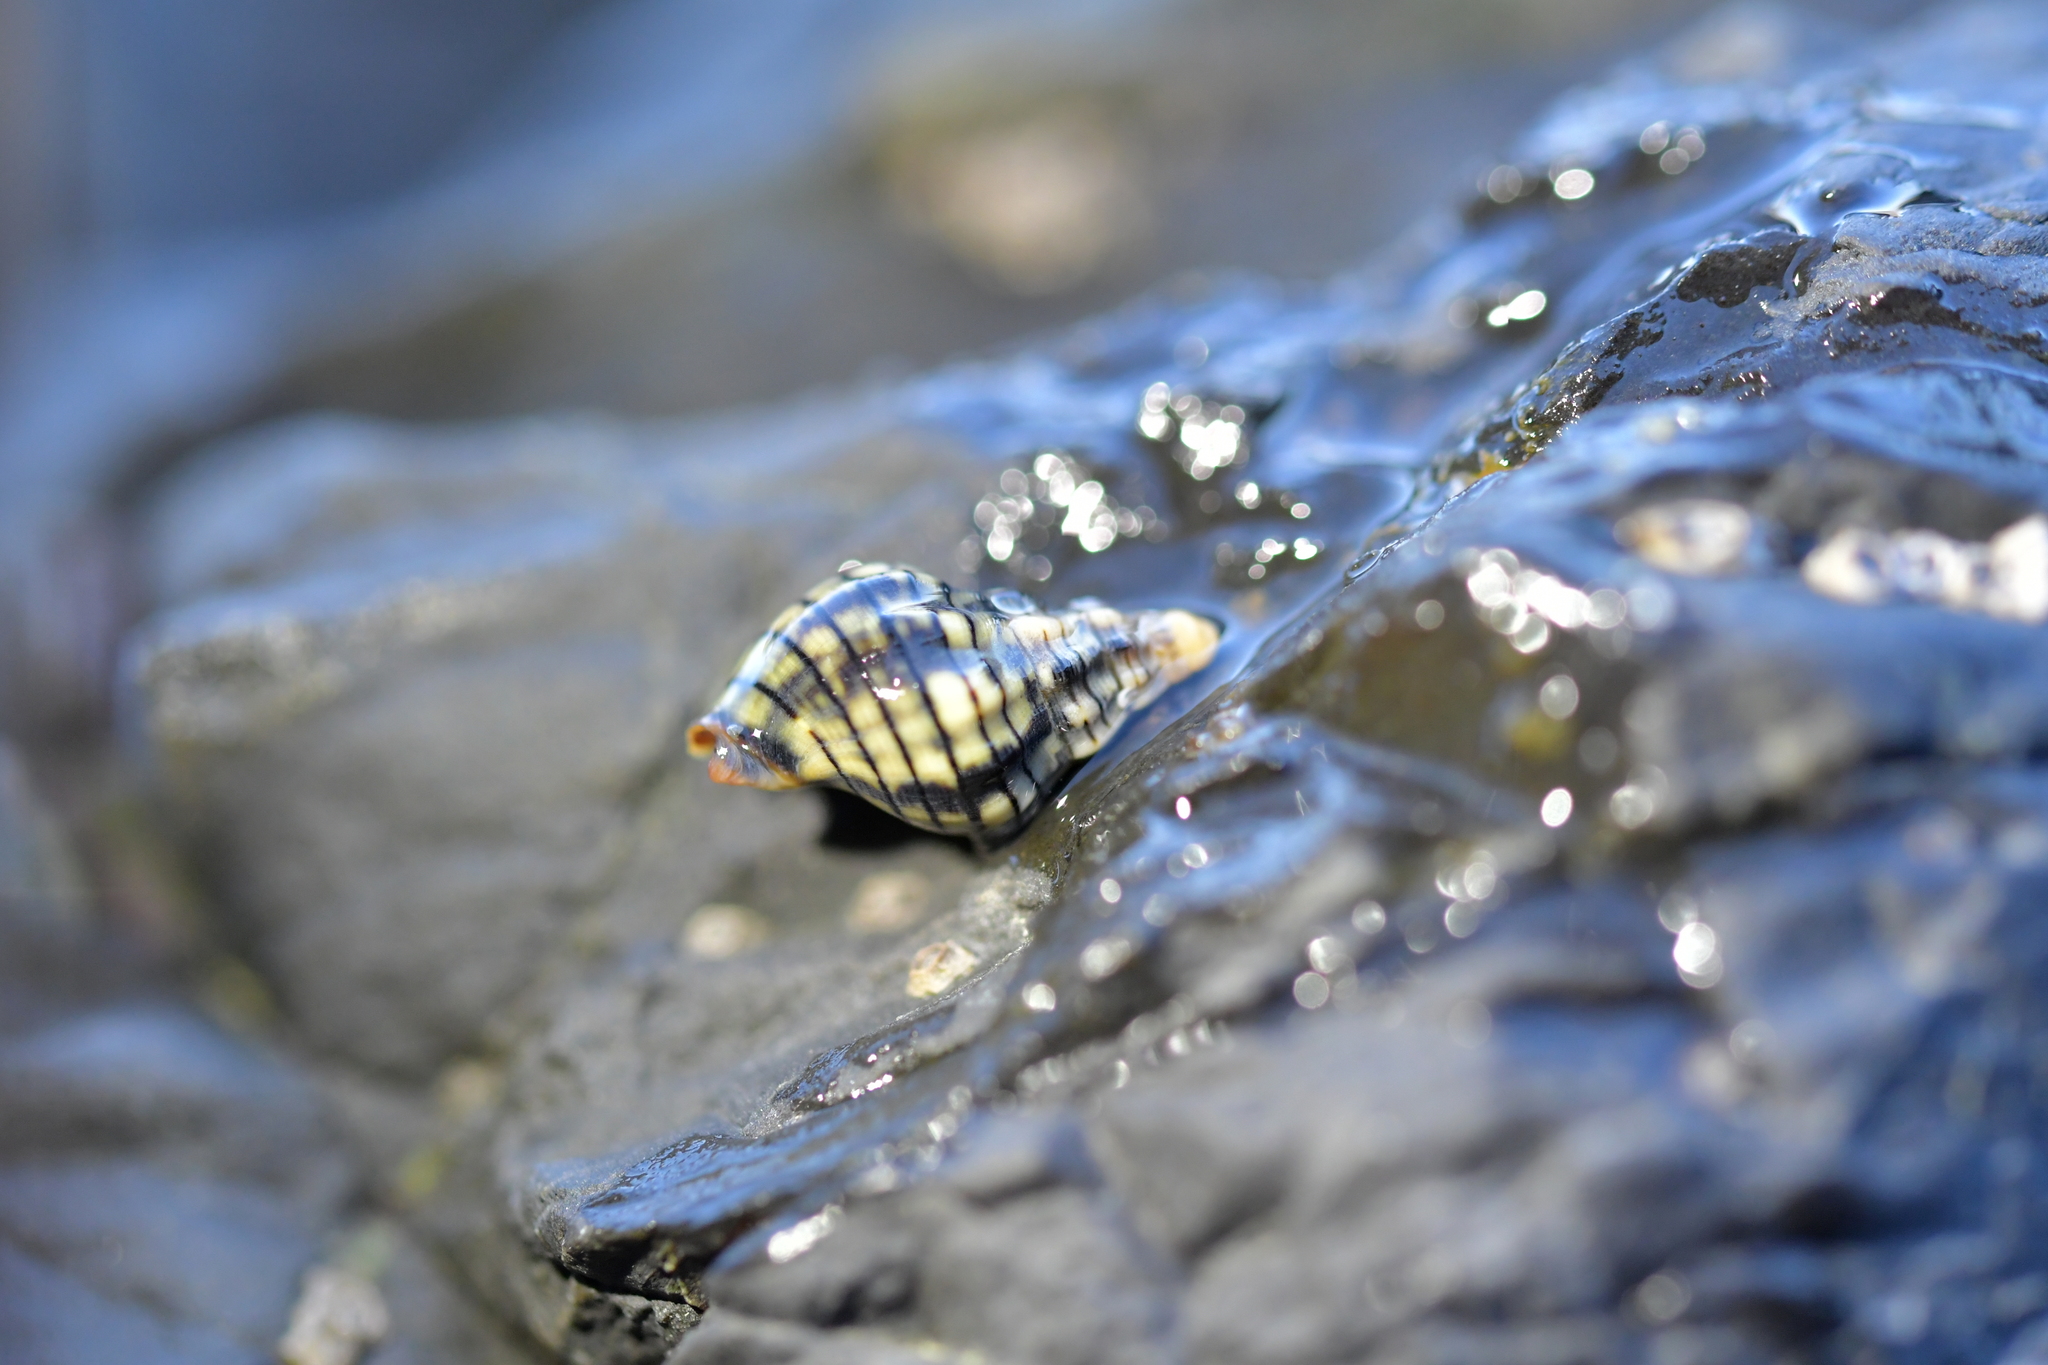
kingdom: Animalia
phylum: Mollusca
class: Gastropoda
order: Neogastropoda
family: Cominellidae
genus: Cominella
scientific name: Cominella virgata
